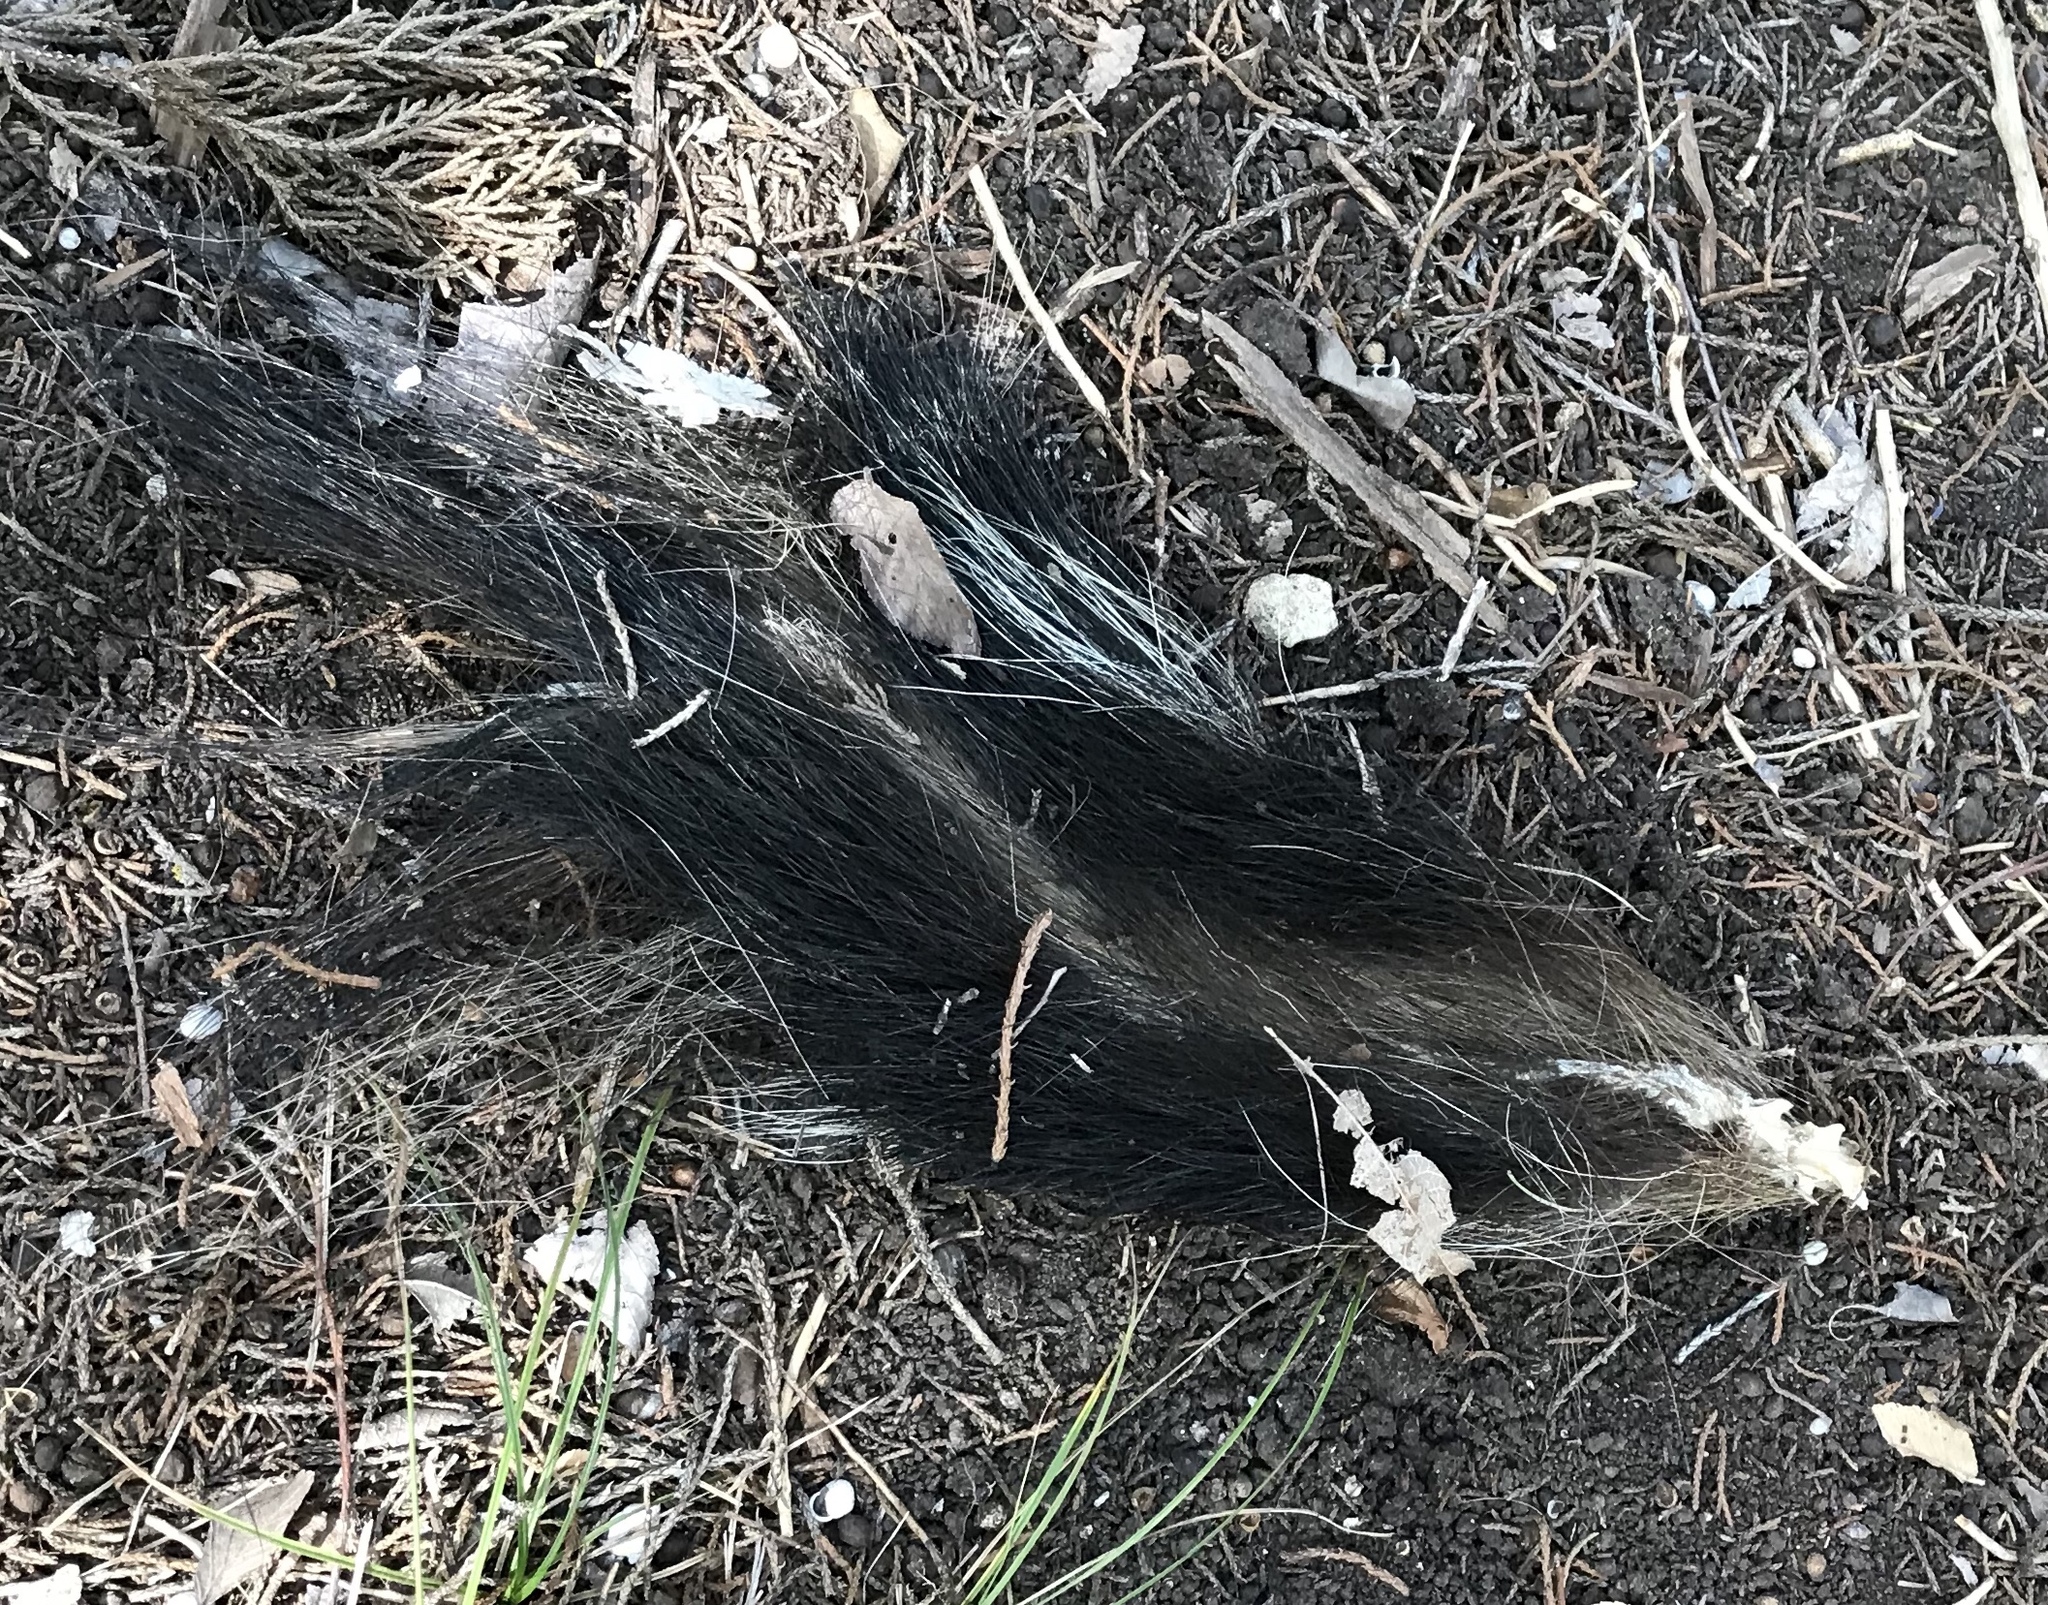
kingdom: Animalia
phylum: Chordata
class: Mammalia
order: Carnivora
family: Mephitidae
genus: Mephitis
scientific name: Mephitis mephitis
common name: Striped skunk
